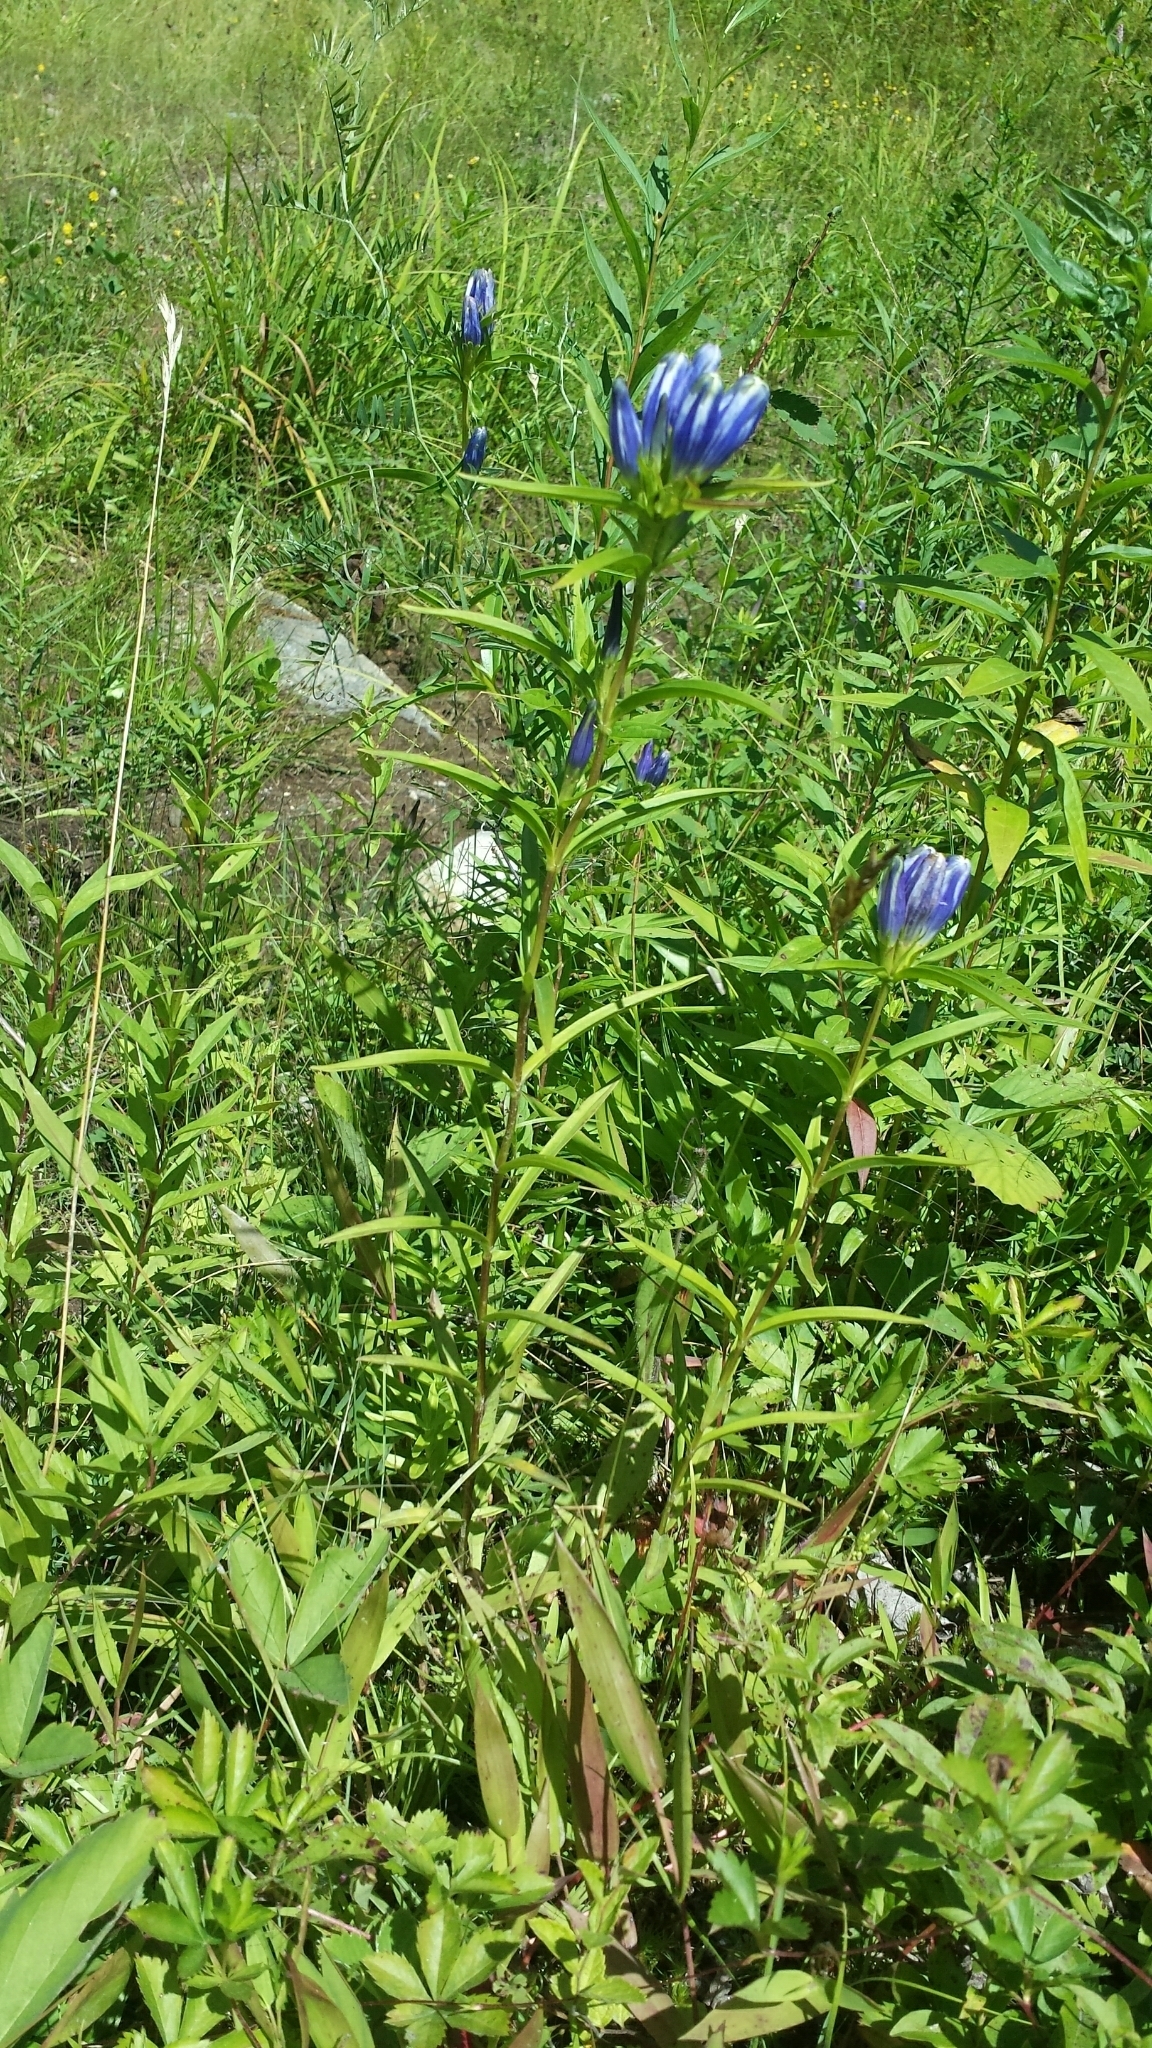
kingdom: Plantae
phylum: Tracheophyta
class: Magnoliopsida
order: Gentianales
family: Gentianaceae
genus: Gentiana
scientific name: Gentiana linearis
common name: Bastard gentian
